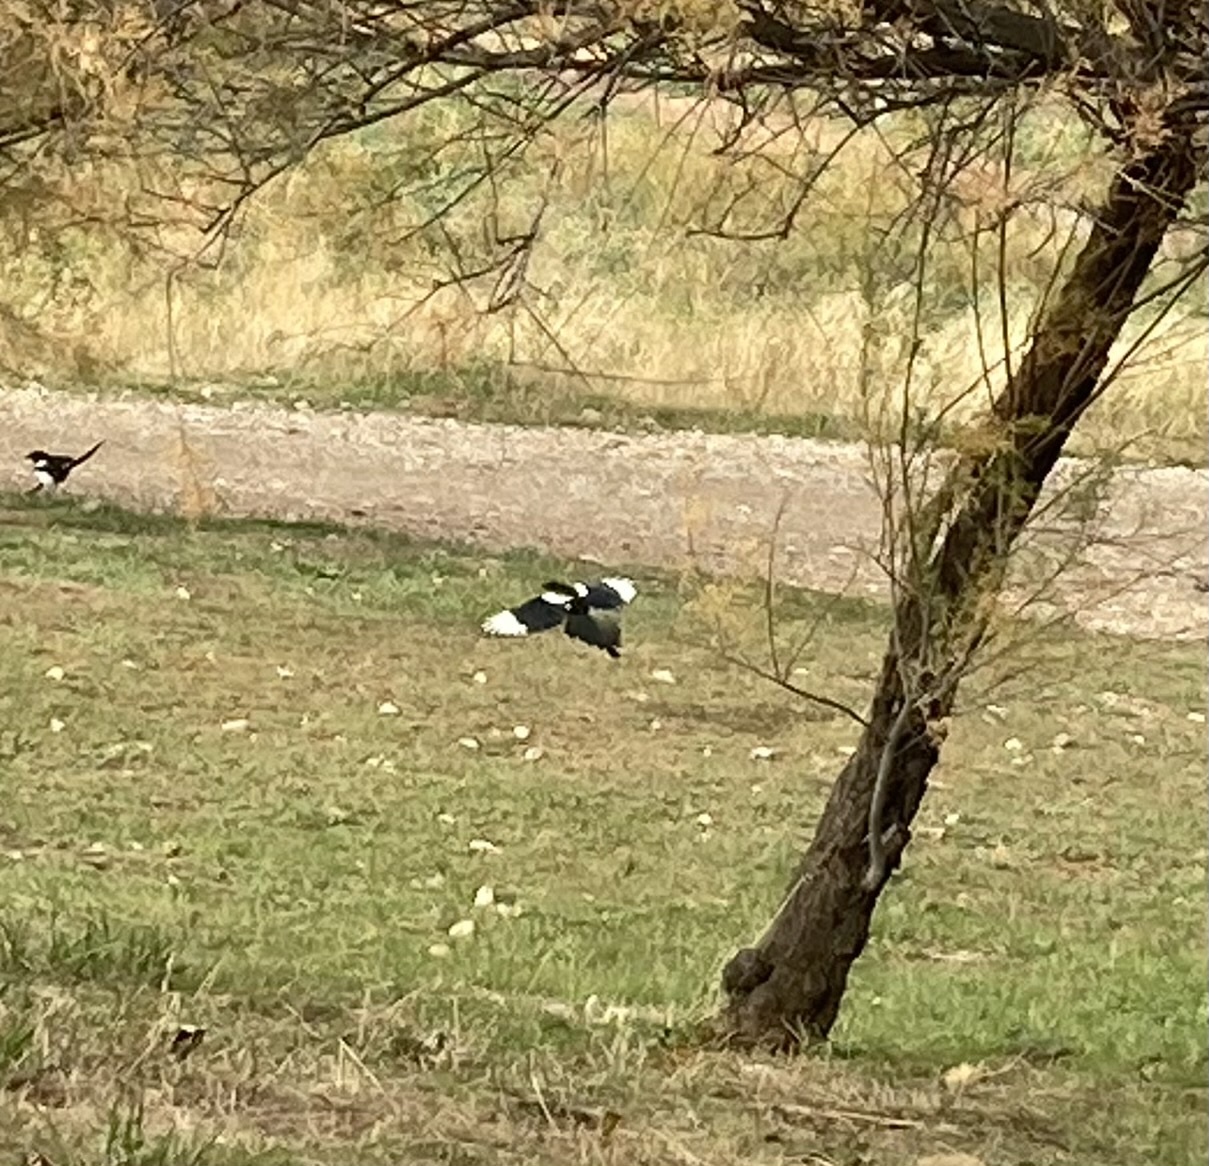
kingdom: Animalia
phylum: Chordata
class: Aves
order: Passeriformes
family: Corvidae
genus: Pica
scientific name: Pica pica
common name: Eurasian magpie
